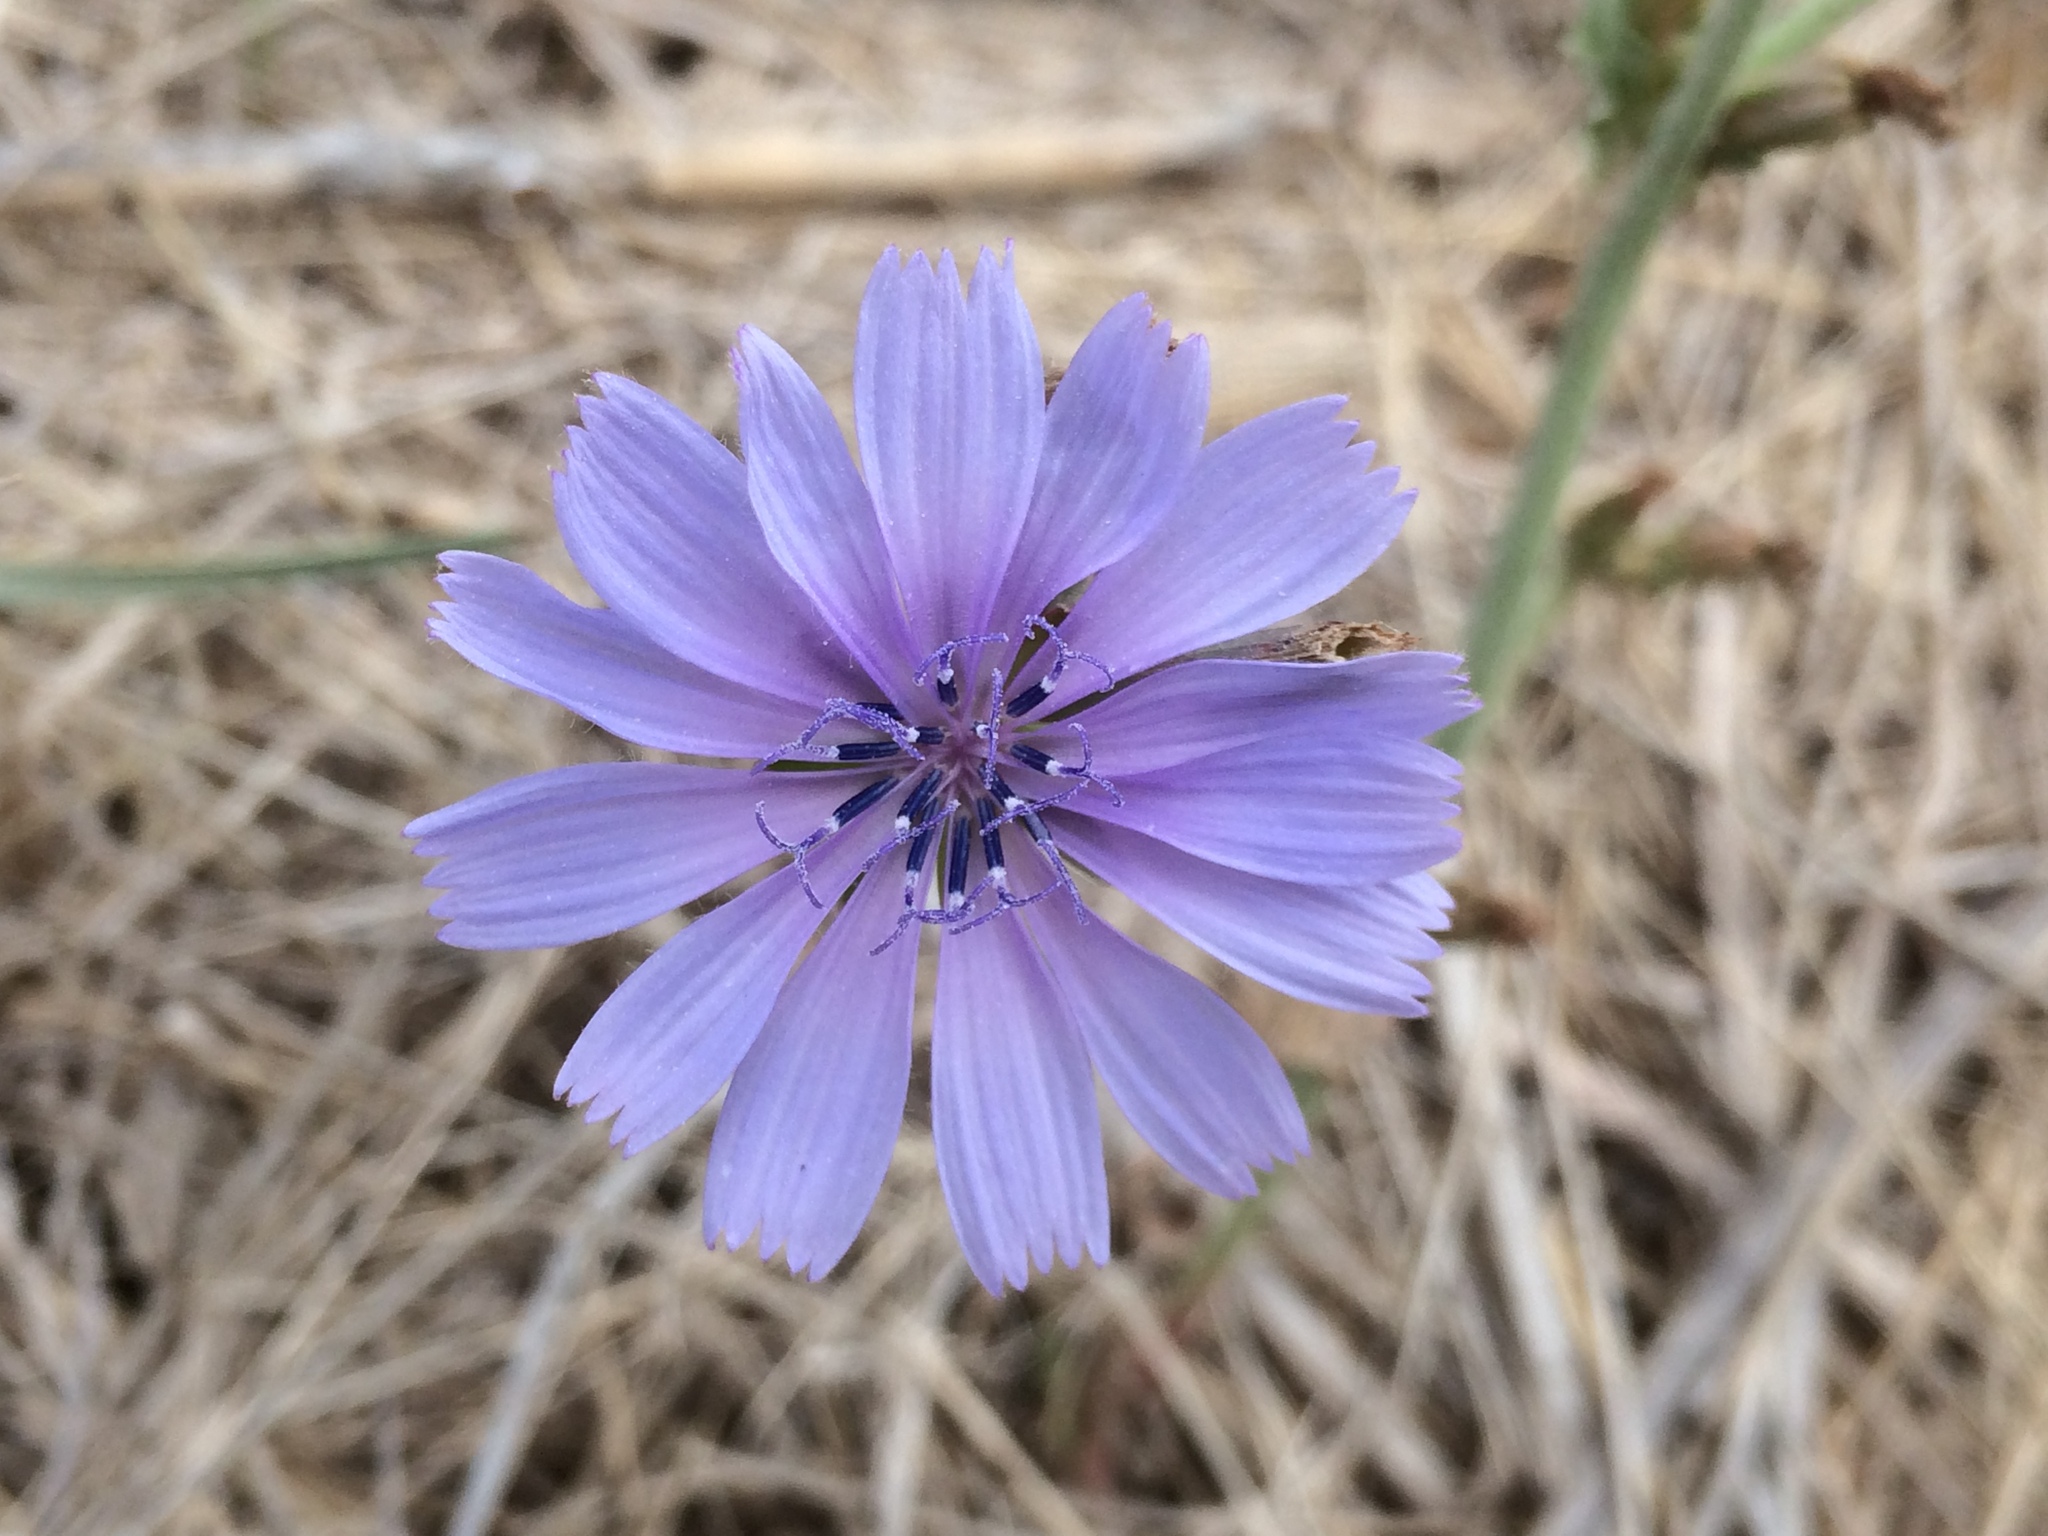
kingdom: Plantae
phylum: Tracheophyta
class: Magnoliopsida
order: Asterales
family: Asteraceae
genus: Cichorium
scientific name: Cichorium intybus
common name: Chicory
